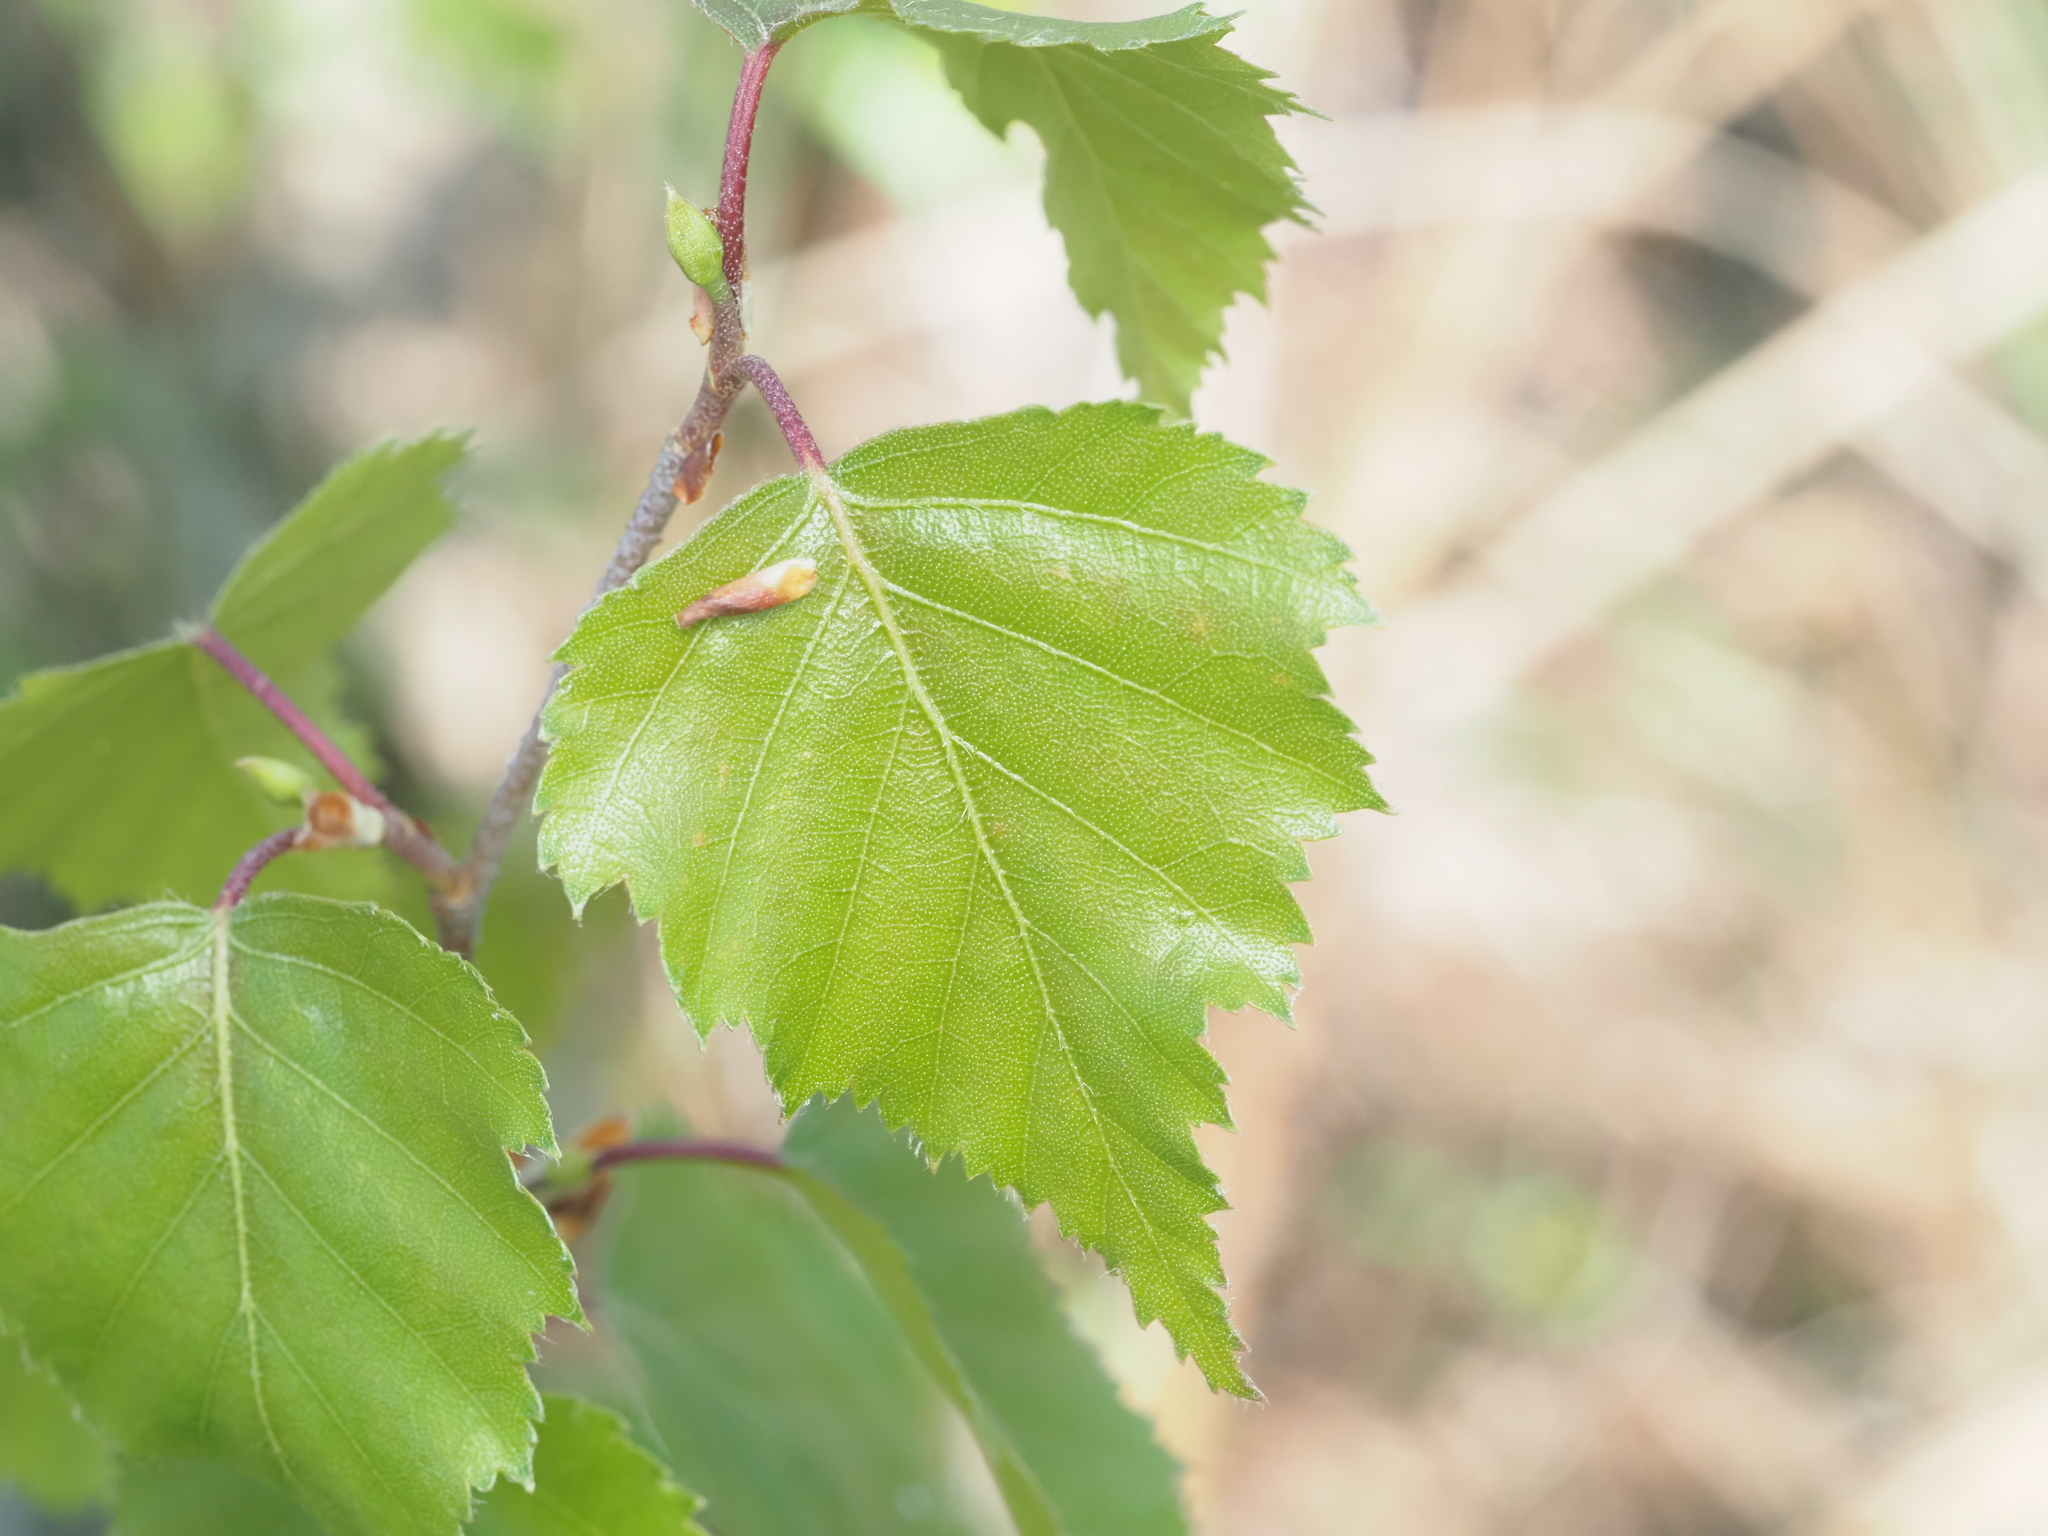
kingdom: Plantae
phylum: Tracheophyta
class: Magnoliopsida
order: Fagales
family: Betulaceae
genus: Betula
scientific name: Betula pendula
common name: Silver birch
